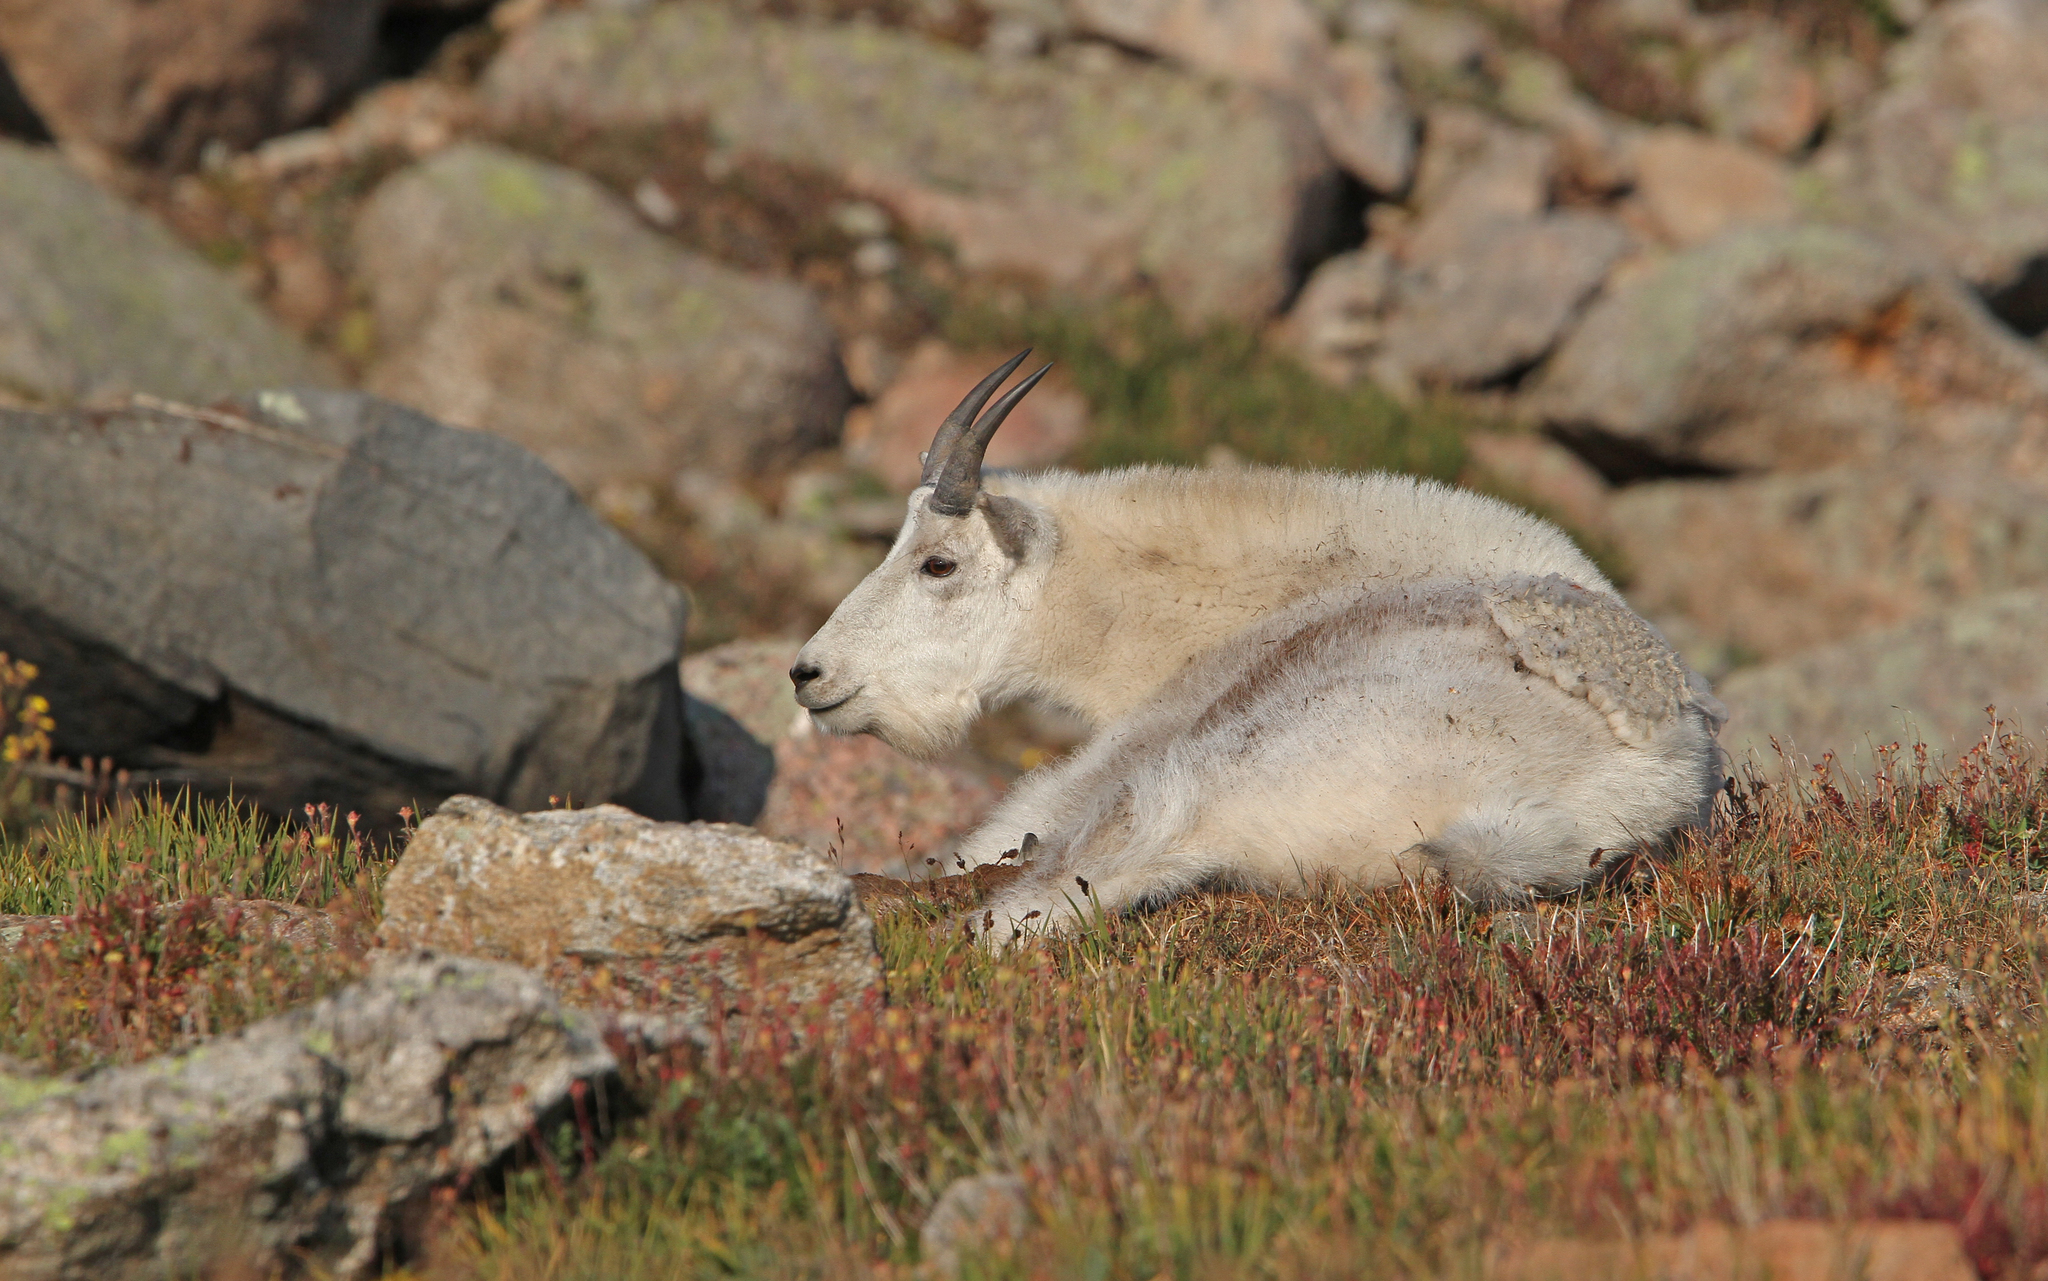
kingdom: Animalia
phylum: Chordata
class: Mammalia
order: Artiodactyla
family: Bovidae
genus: Oreamnos
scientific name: Oreamnos americanus
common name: Mountain goat
